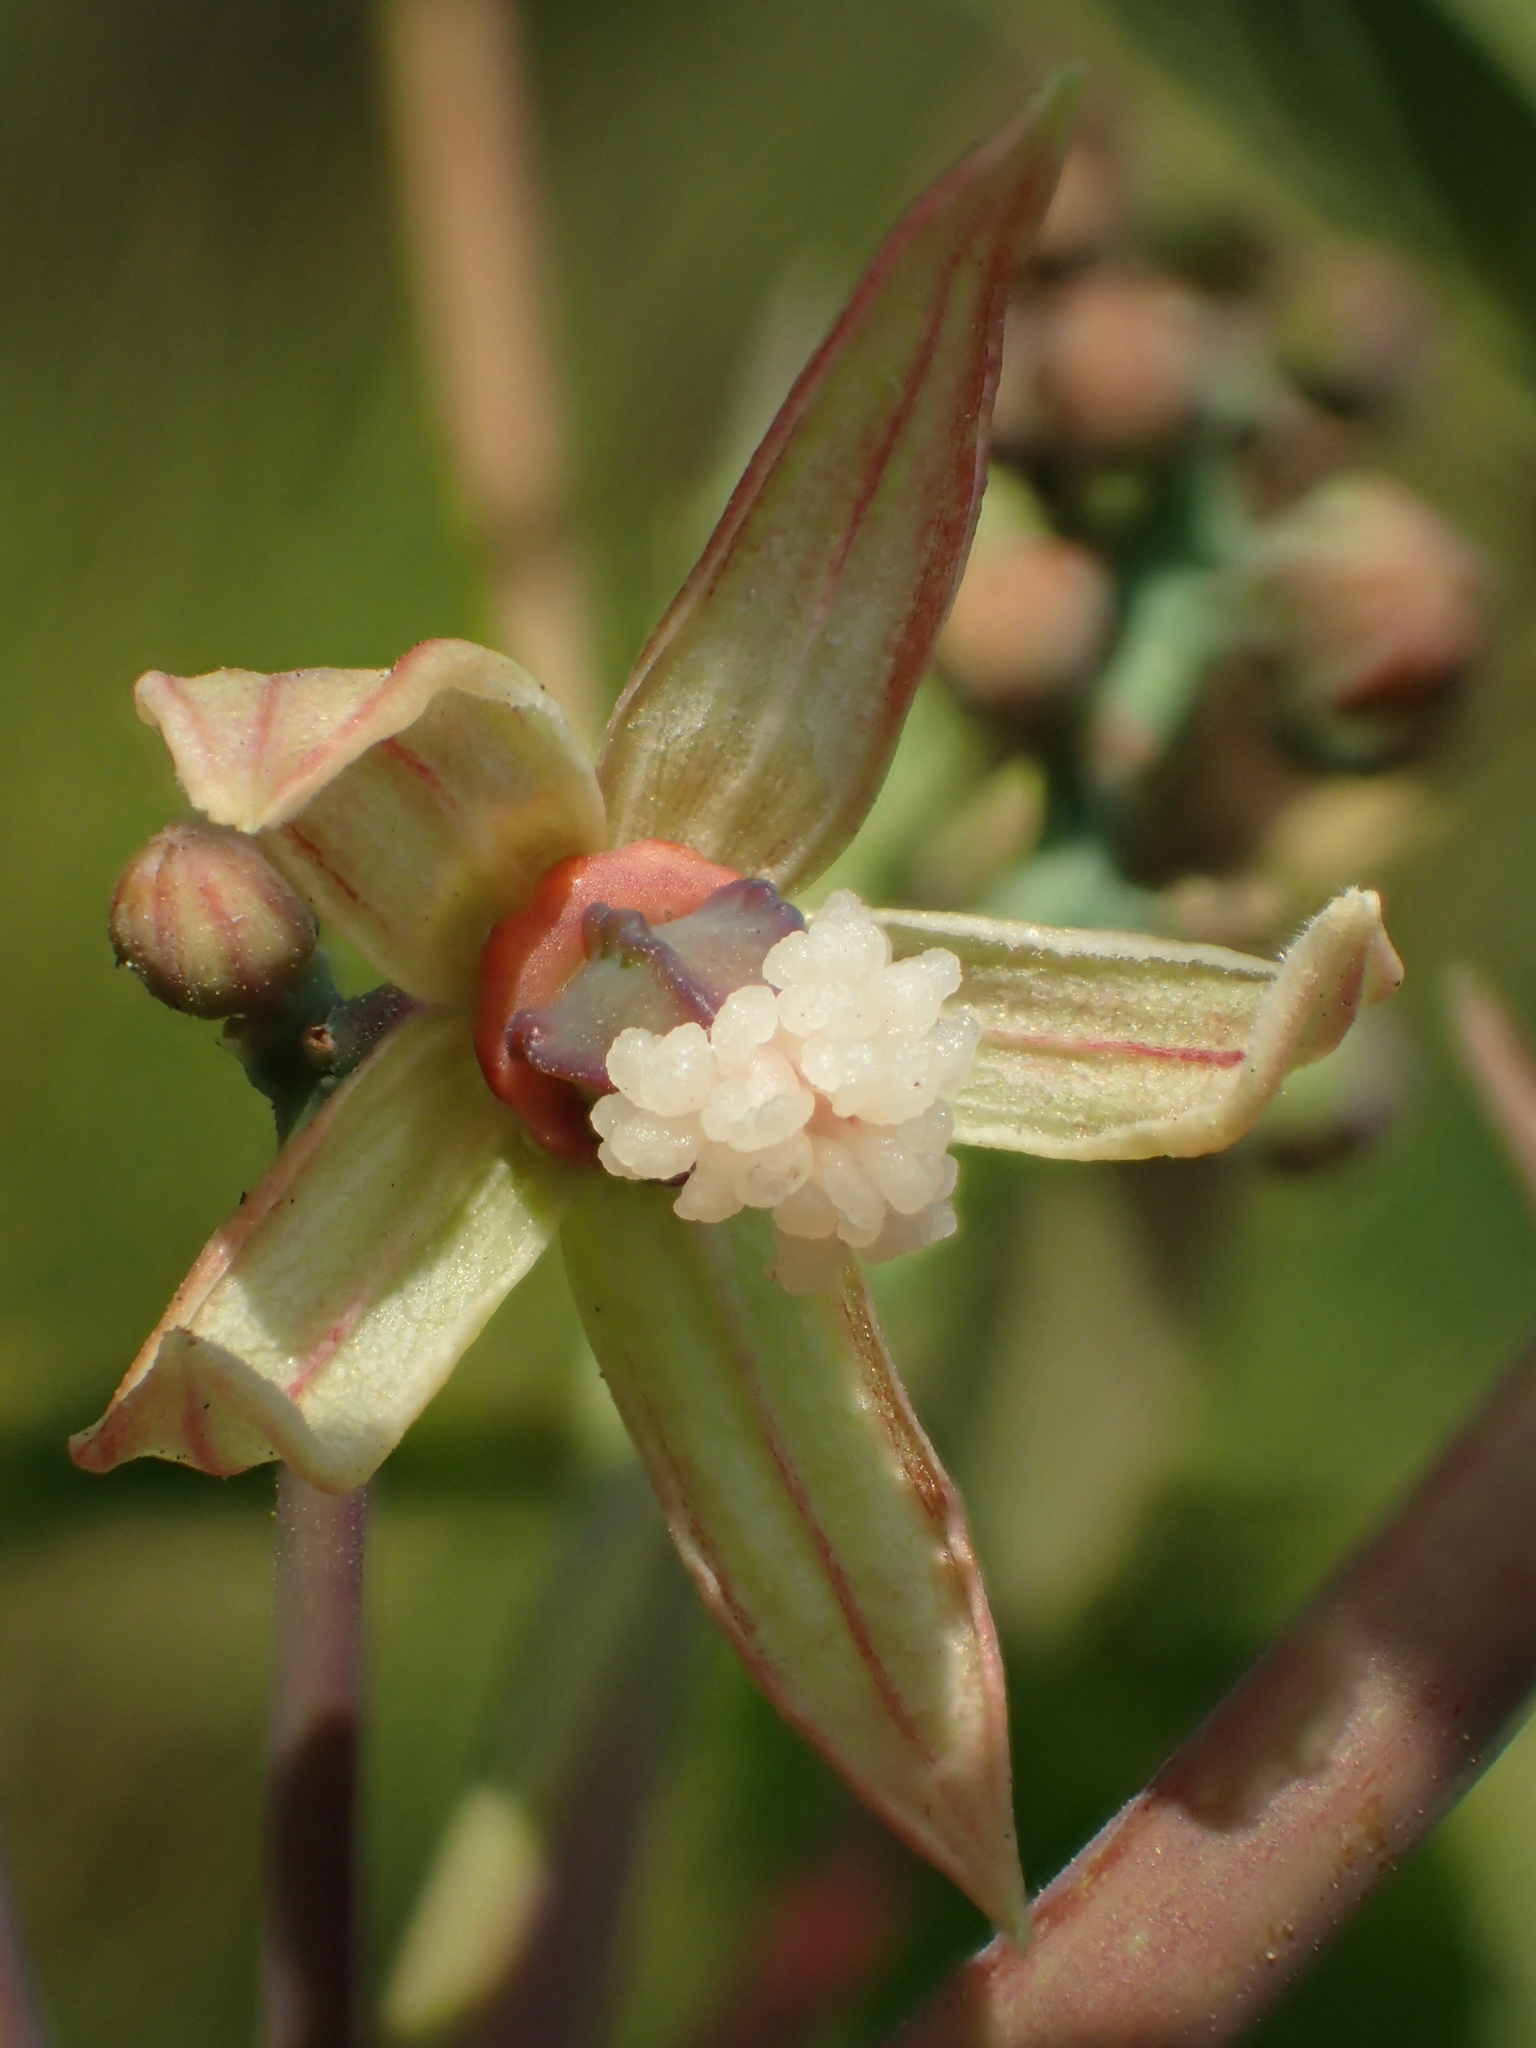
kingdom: Plantae
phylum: Tracheophyta
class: Magnoliopsida
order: Malpighiales
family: Euphorbiaceae
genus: Manihot
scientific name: Manihot esculenta
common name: Cassava
